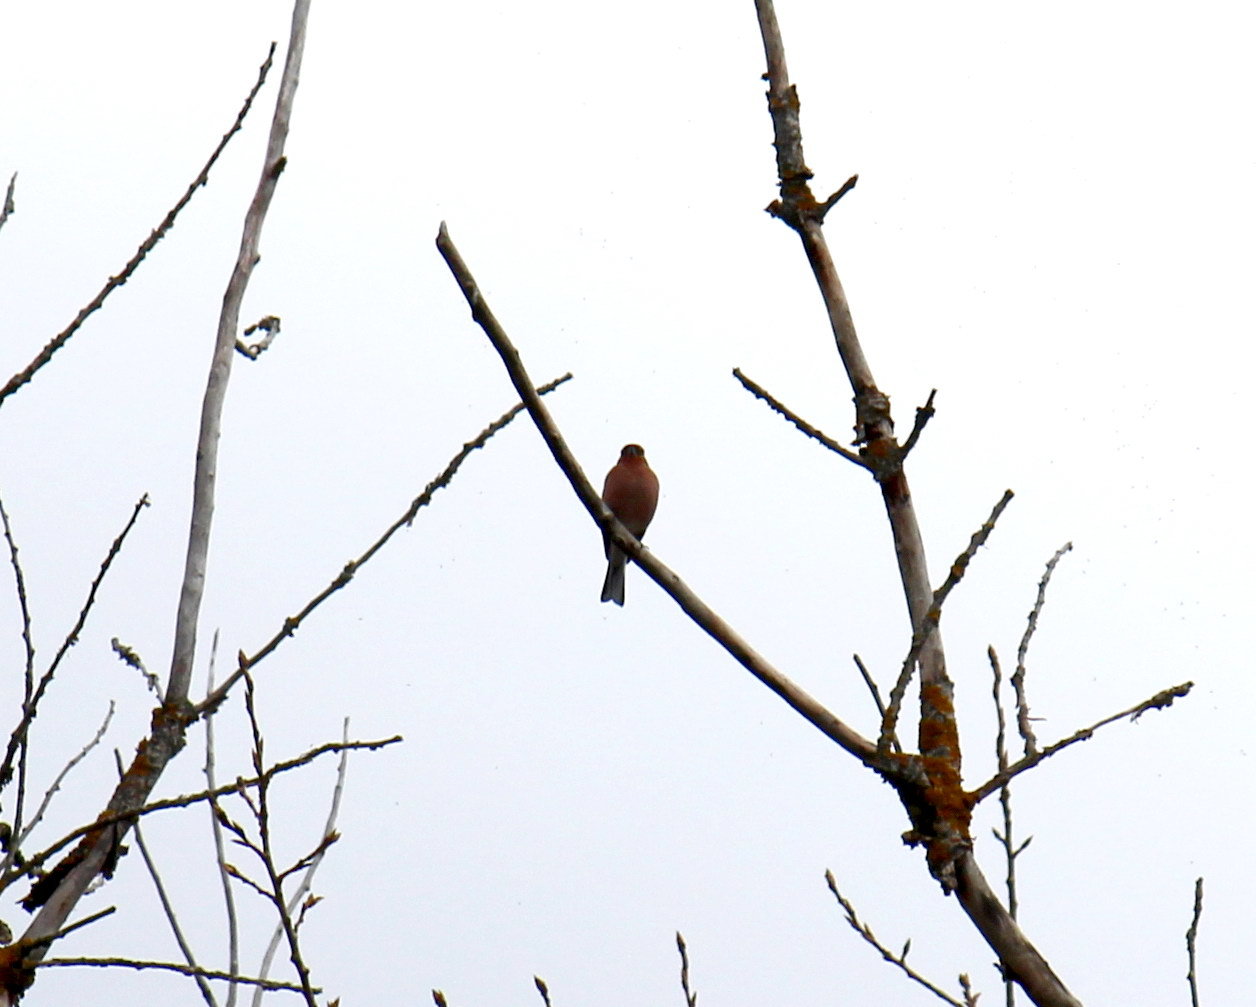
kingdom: Animalia
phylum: Chordata
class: Aves
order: Passeriformes
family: Fringillidae
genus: Fringilla
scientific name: Fringilla coelebs
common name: Common chaffinch
